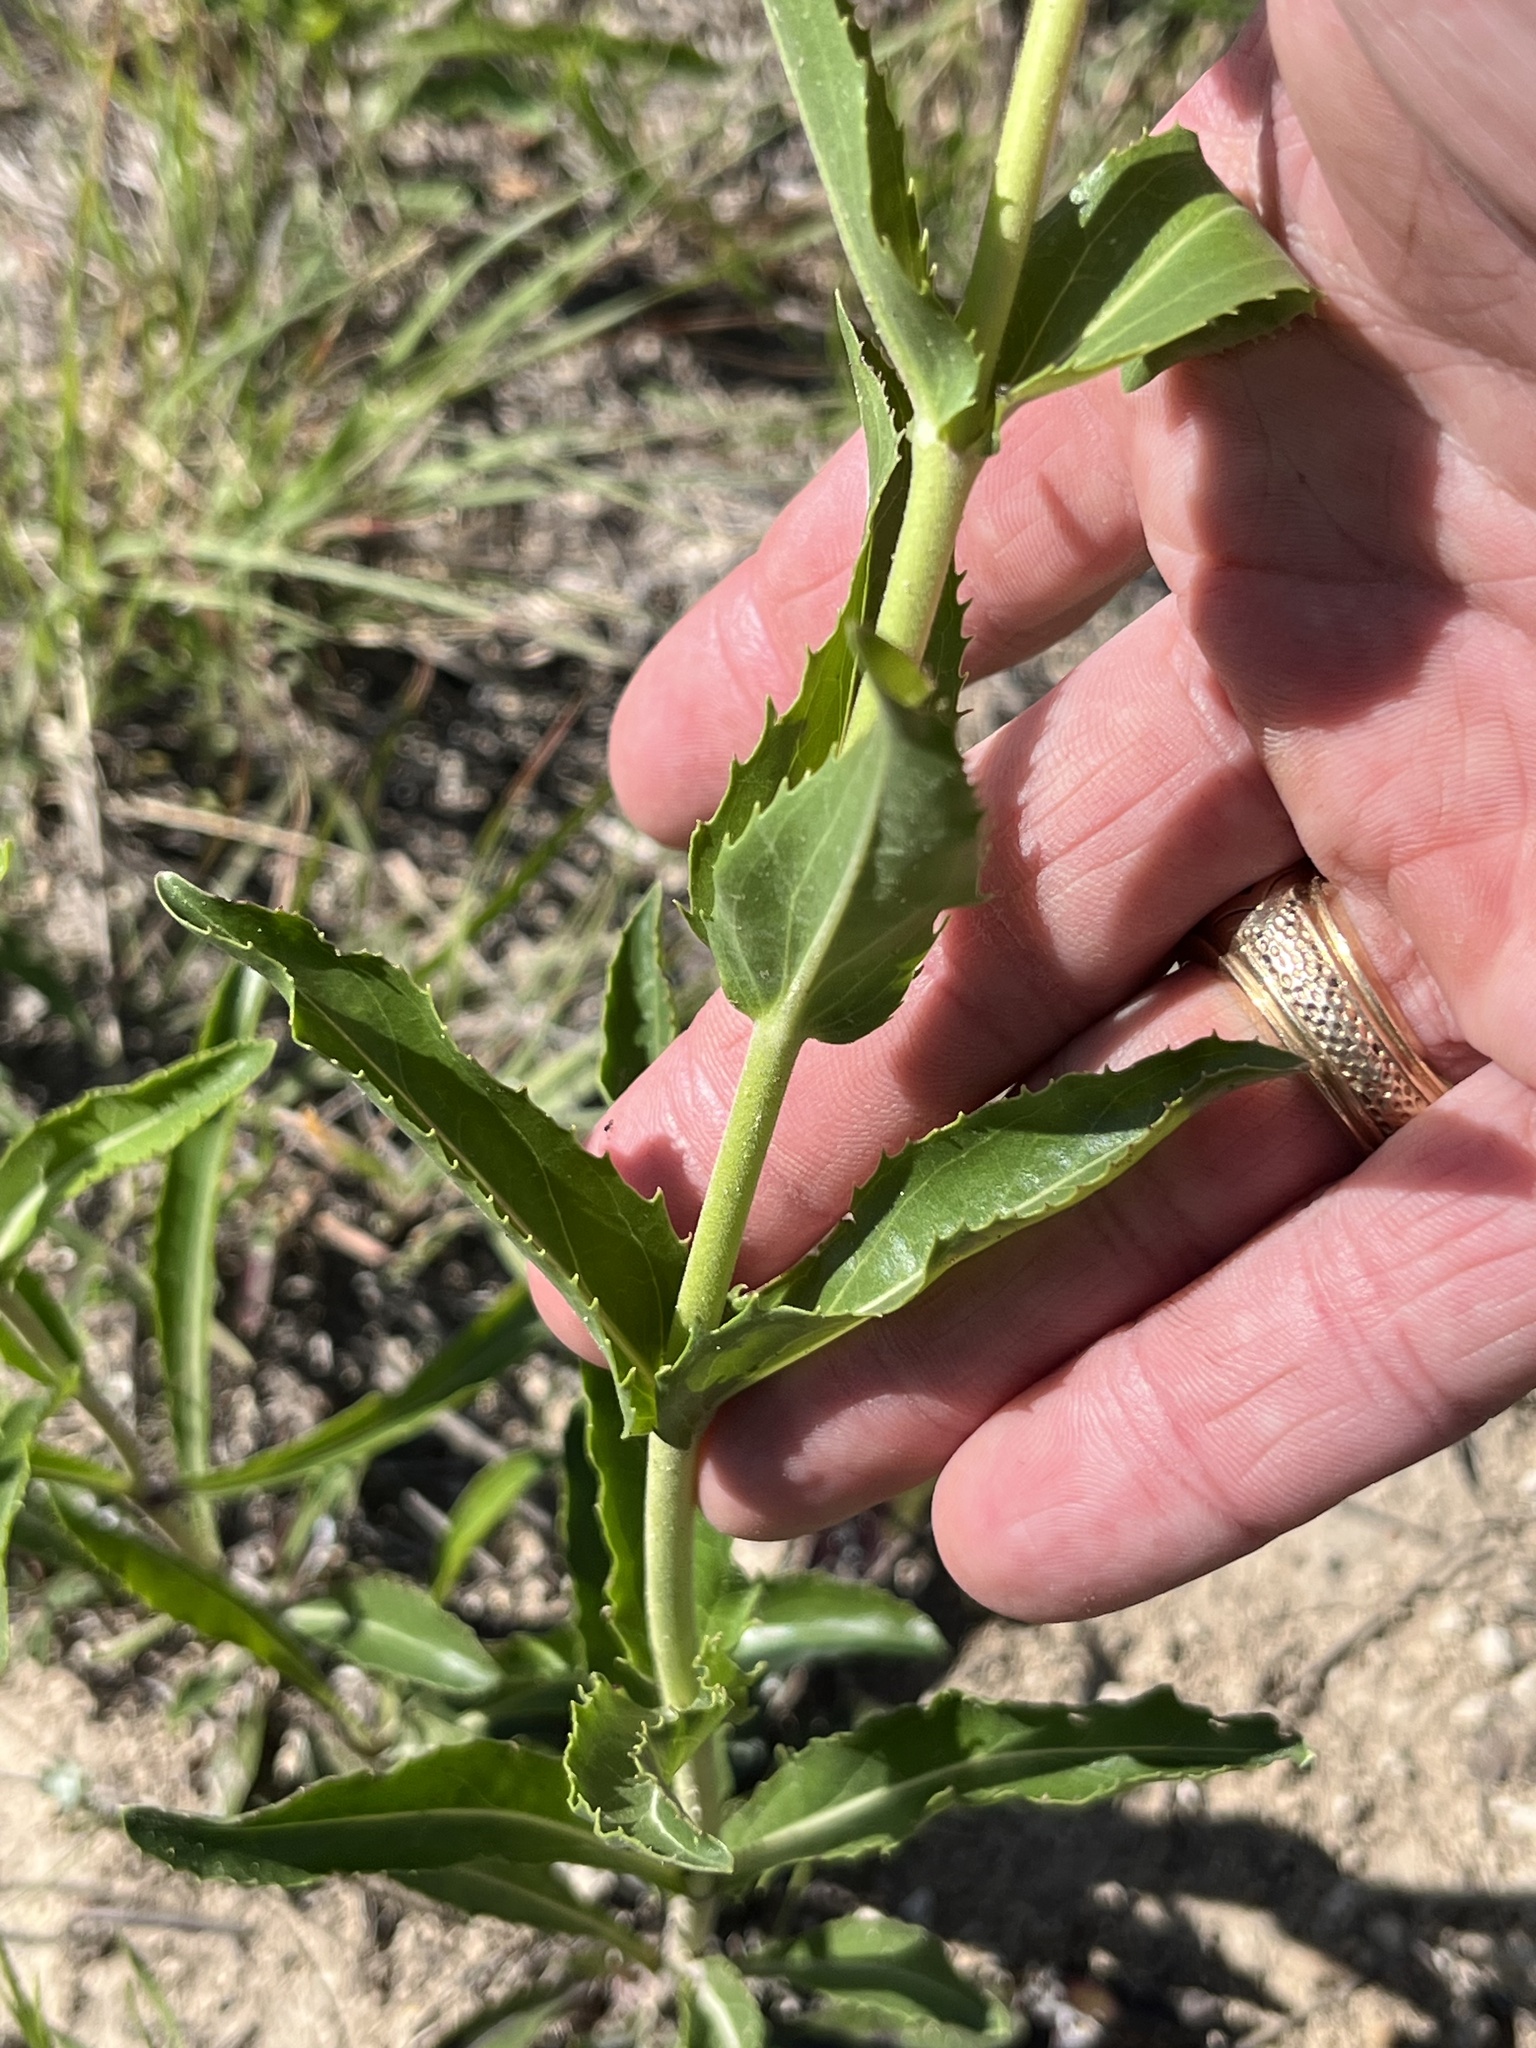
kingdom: Plantae
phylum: Tracheophyta
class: Magnoliopsida
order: Lamiales
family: Plantaginaceae
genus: Penstemon
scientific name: Penstemon cobaea
